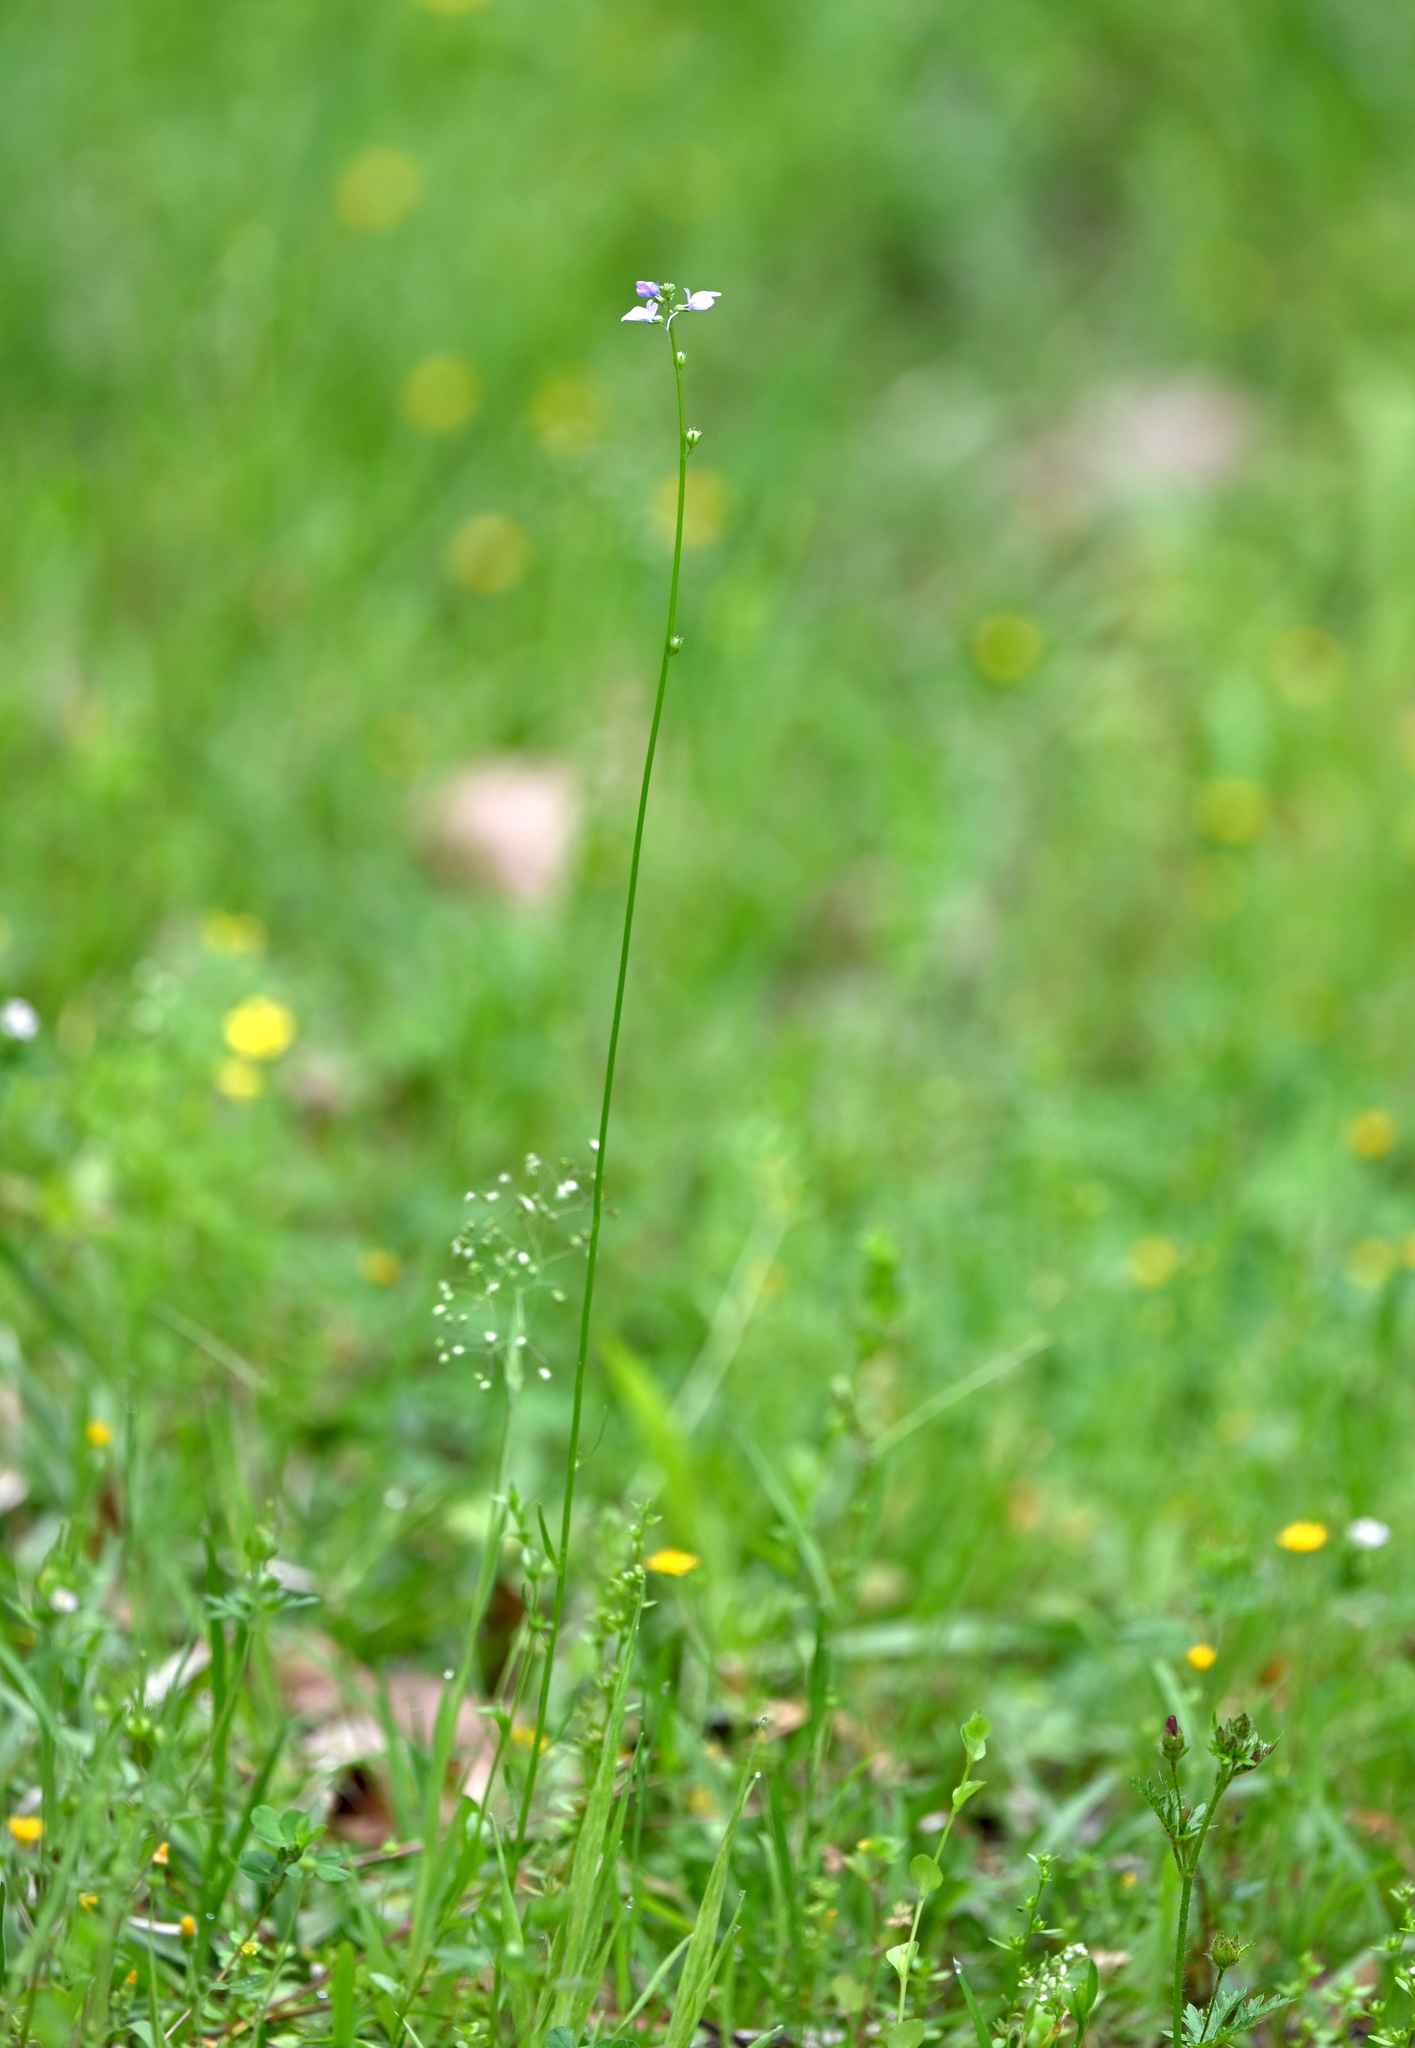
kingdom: Plantae
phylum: Tracheophyta
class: Magnoliopsida
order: Lamiales
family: Plantaginaceae
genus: Nuttallanthus
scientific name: Nuttallanthus texanus
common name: Texas toadflax
